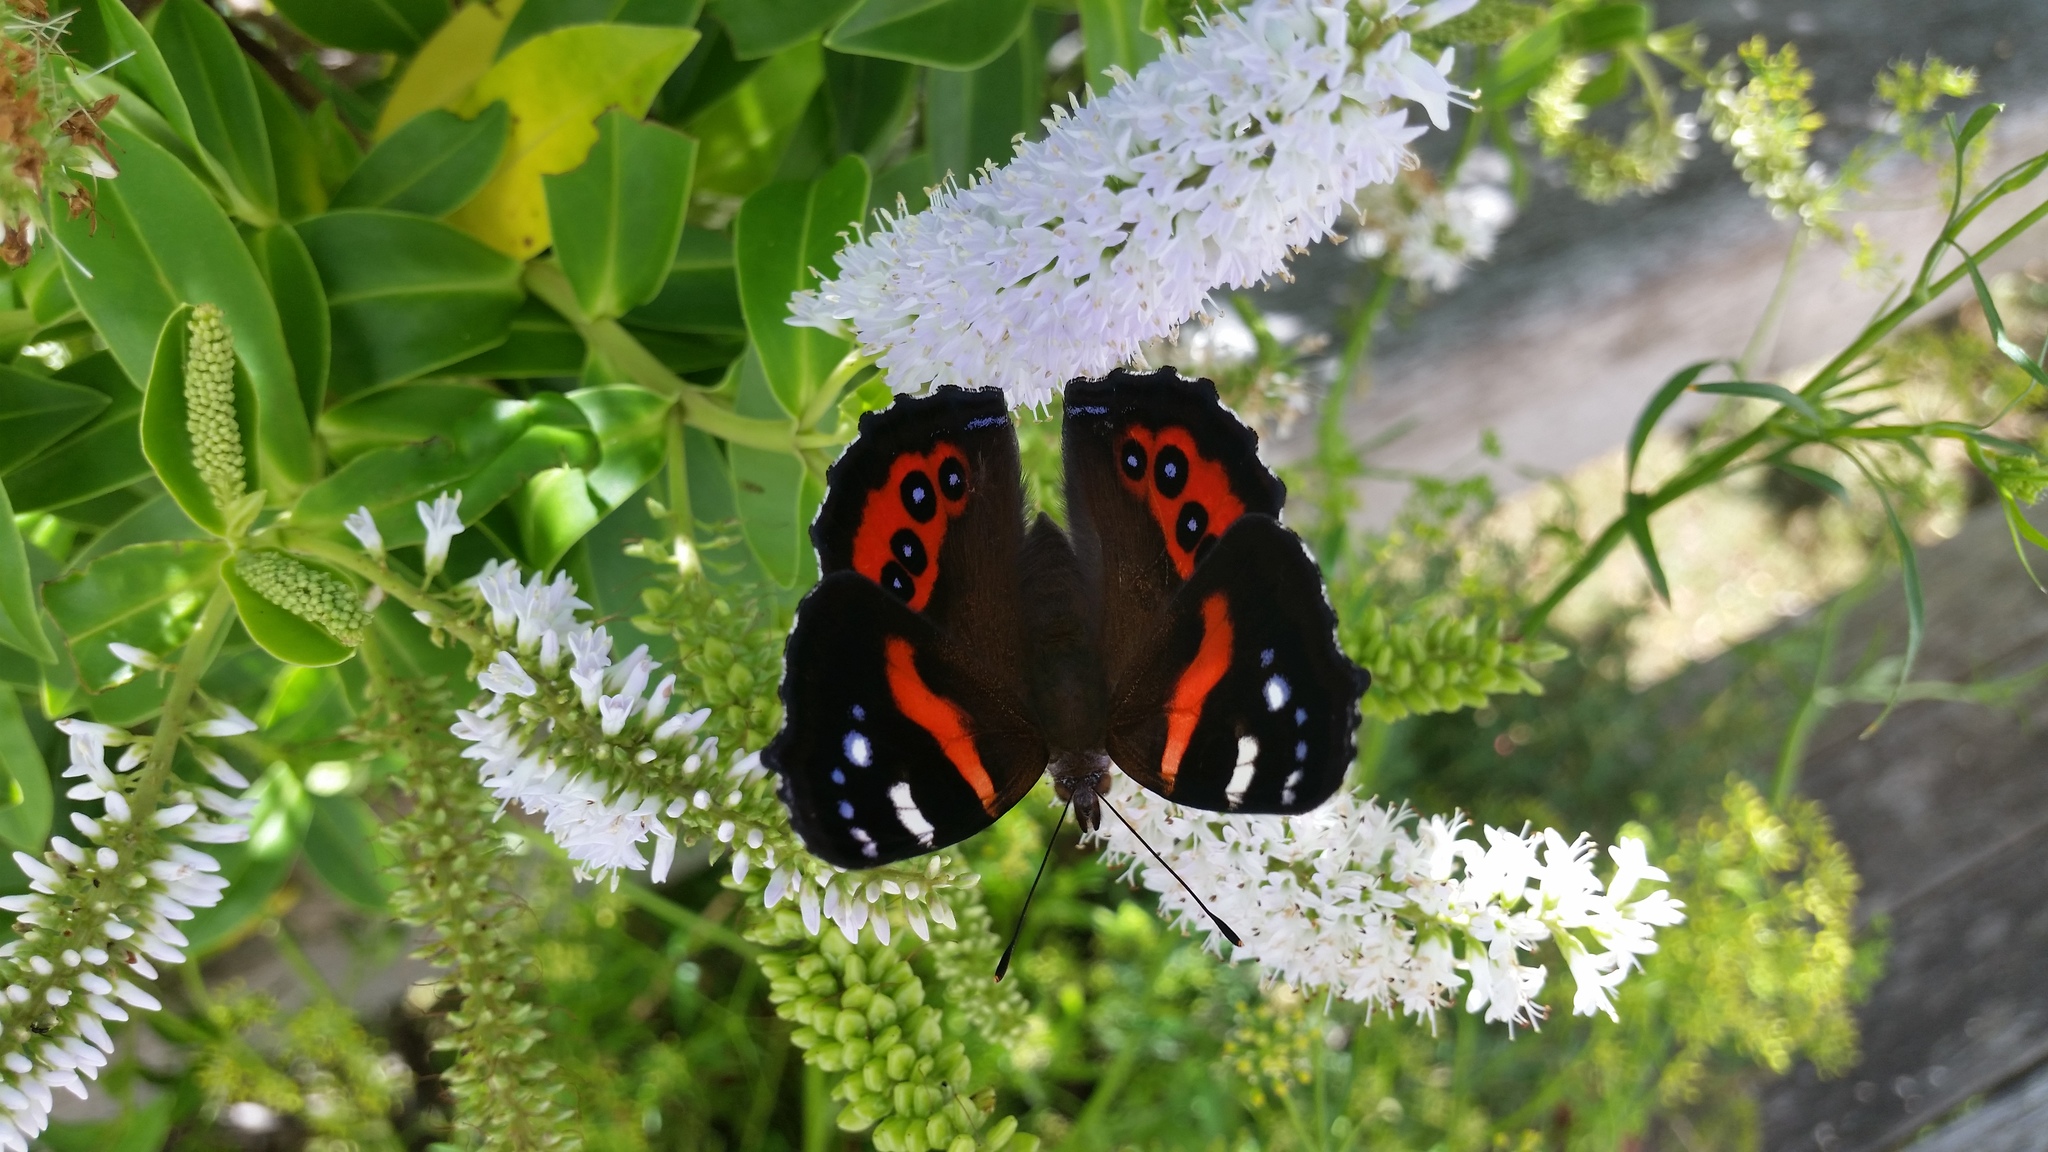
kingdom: Animalia
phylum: Arthropoda
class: Insecta
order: Lepidoptera
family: Nymphalidae
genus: Vanessa
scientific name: Vanessa gonerilla
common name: New zealand red admiral
